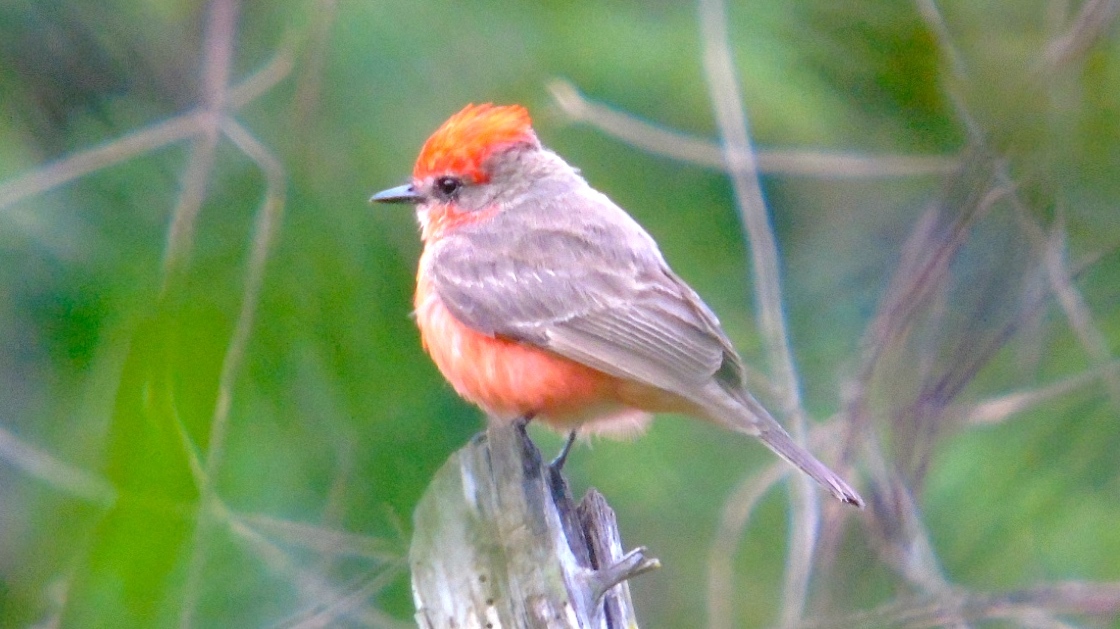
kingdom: Animalia
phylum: Chordata
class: Aves
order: Passeriformes
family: Tyrannidae
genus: Pyrocephalus
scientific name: Pyrocephalus rubinus
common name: Vermilion flycatcher
